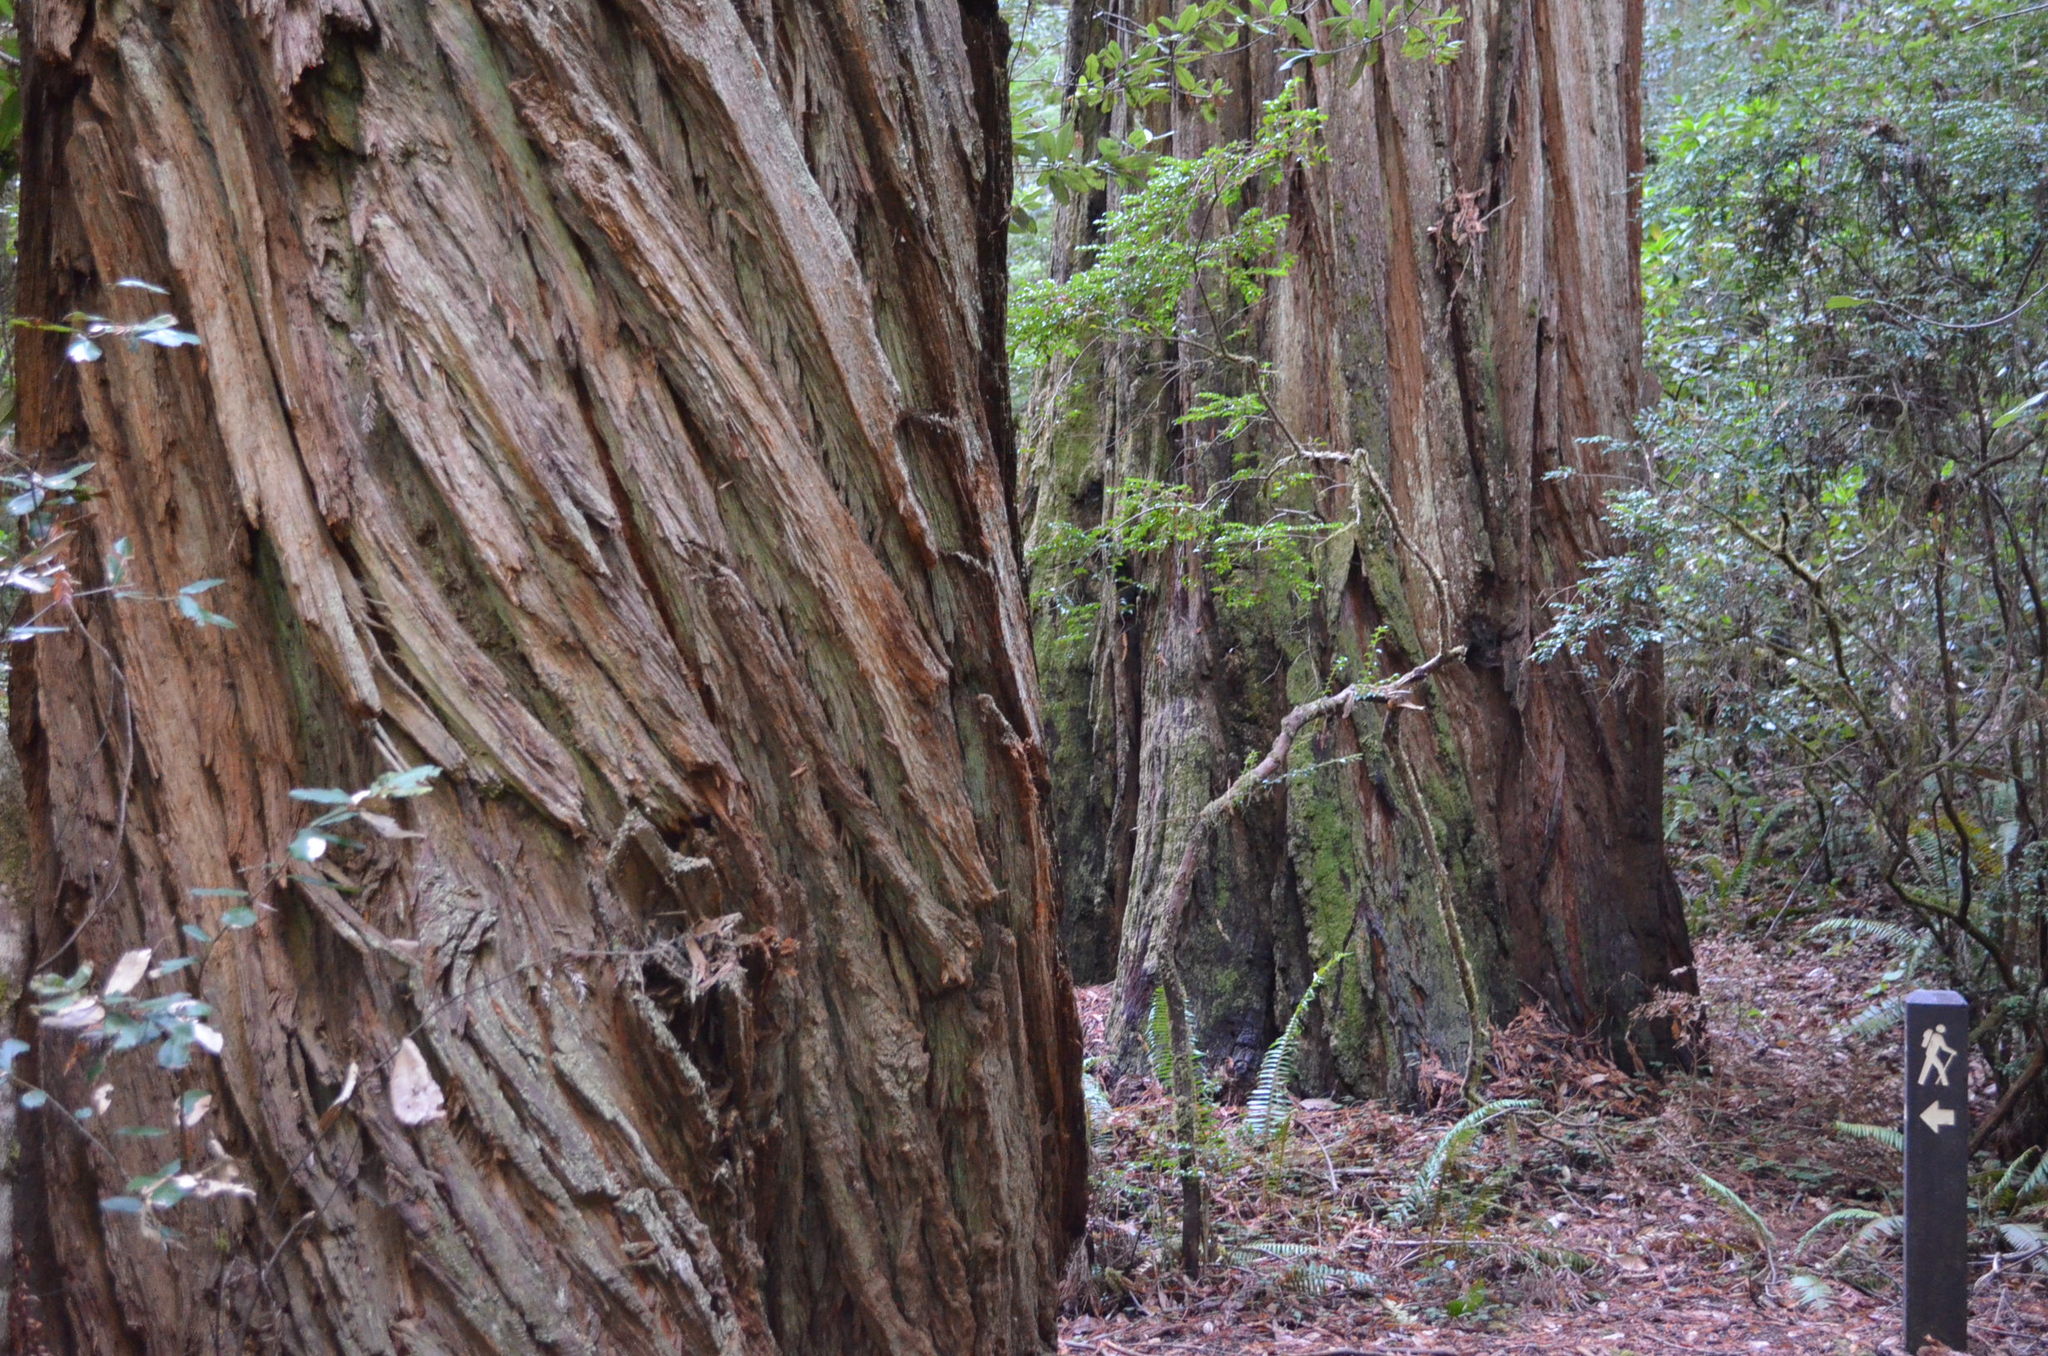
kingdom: Plantae
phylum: Tracheophyta
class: Pinopsida
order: Pinales
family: Cupressaceae
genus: Sequoia
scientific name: Sequoia sempervirens
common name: Coast redwood
